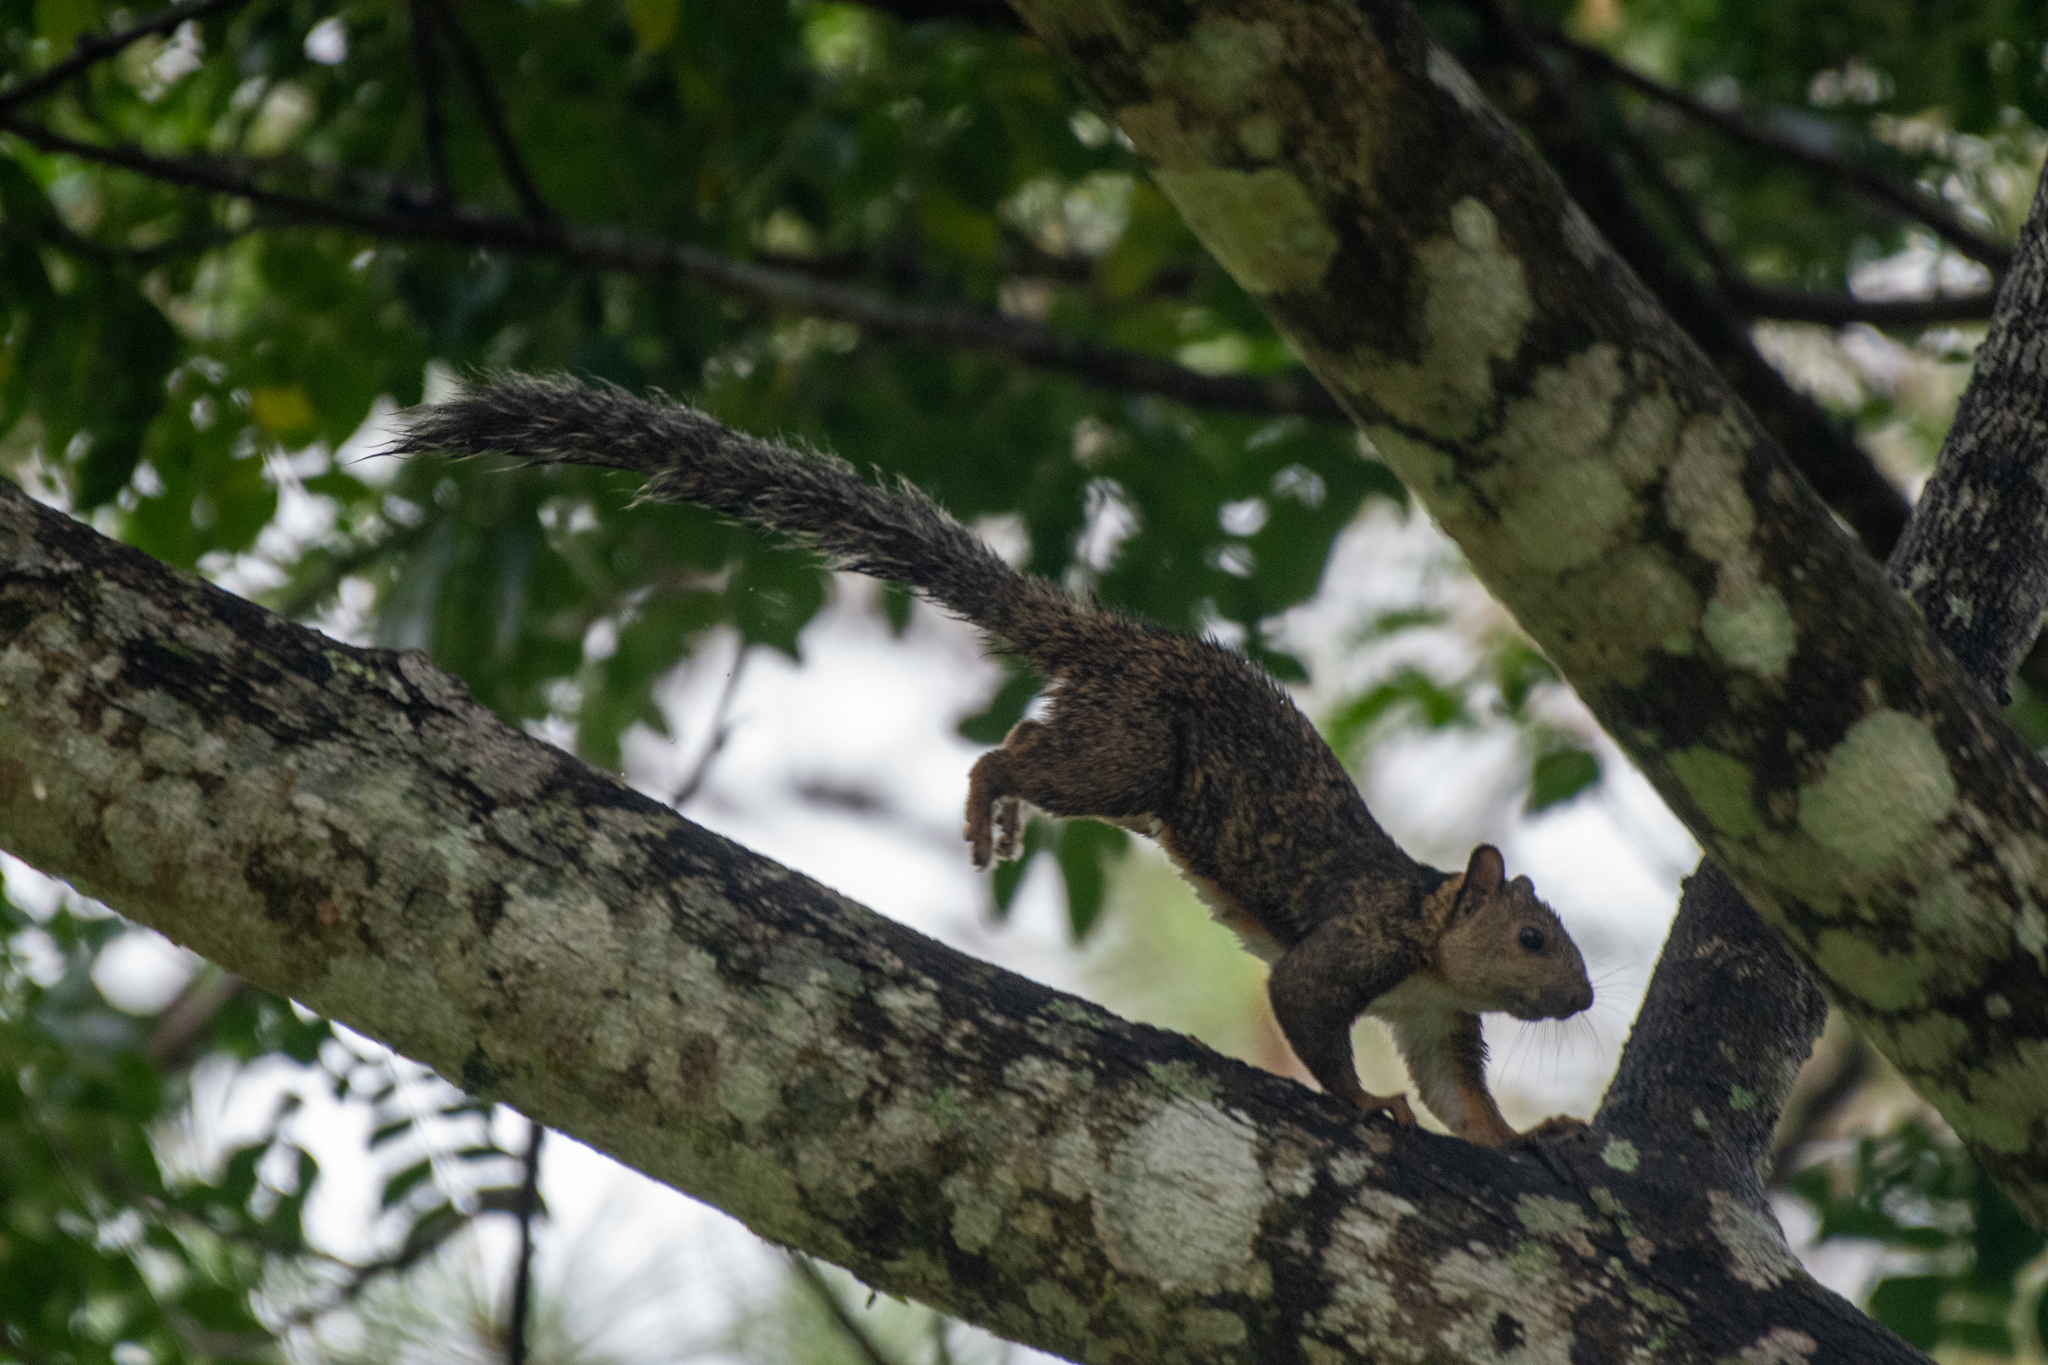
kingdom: Animalia
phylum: Chordata
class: Mammalia
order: Rodentia
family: Sciuridae
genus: Sciurus
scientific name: Sciurus variegatoides
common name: Variegated squirrel
